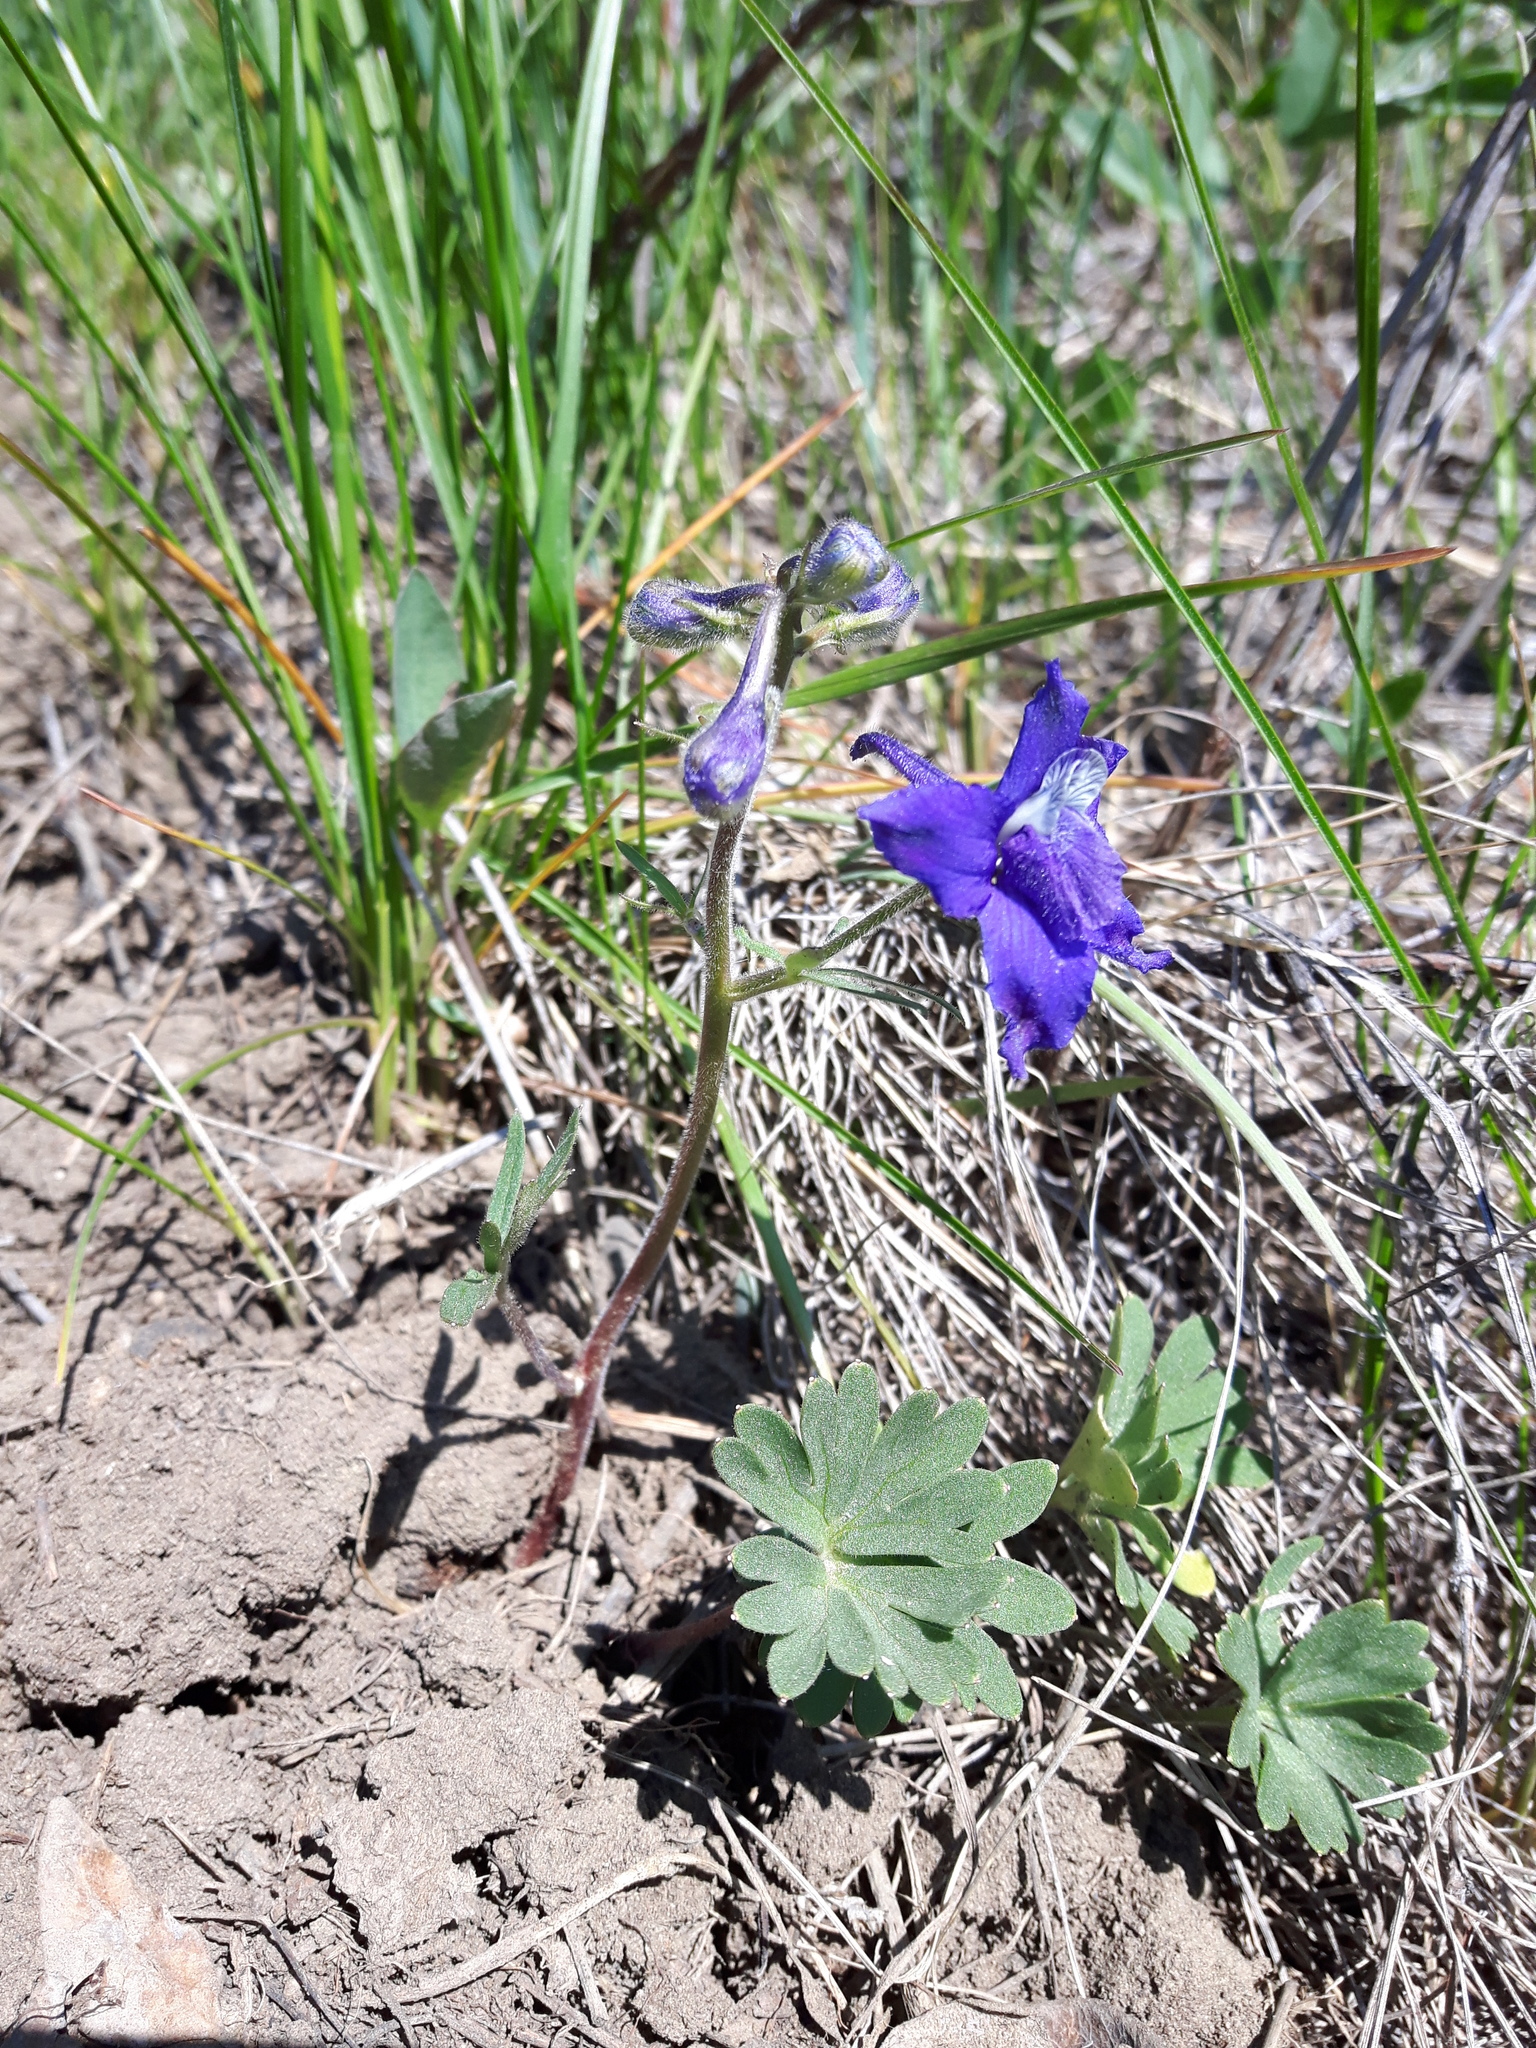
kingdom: Plantae
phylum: Tracheophyta
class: Magnoliopsida
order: Ranunculales
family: Ranunculaceae
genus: Delphinium
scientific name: Delphinium bicolor
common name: Low larkspur
